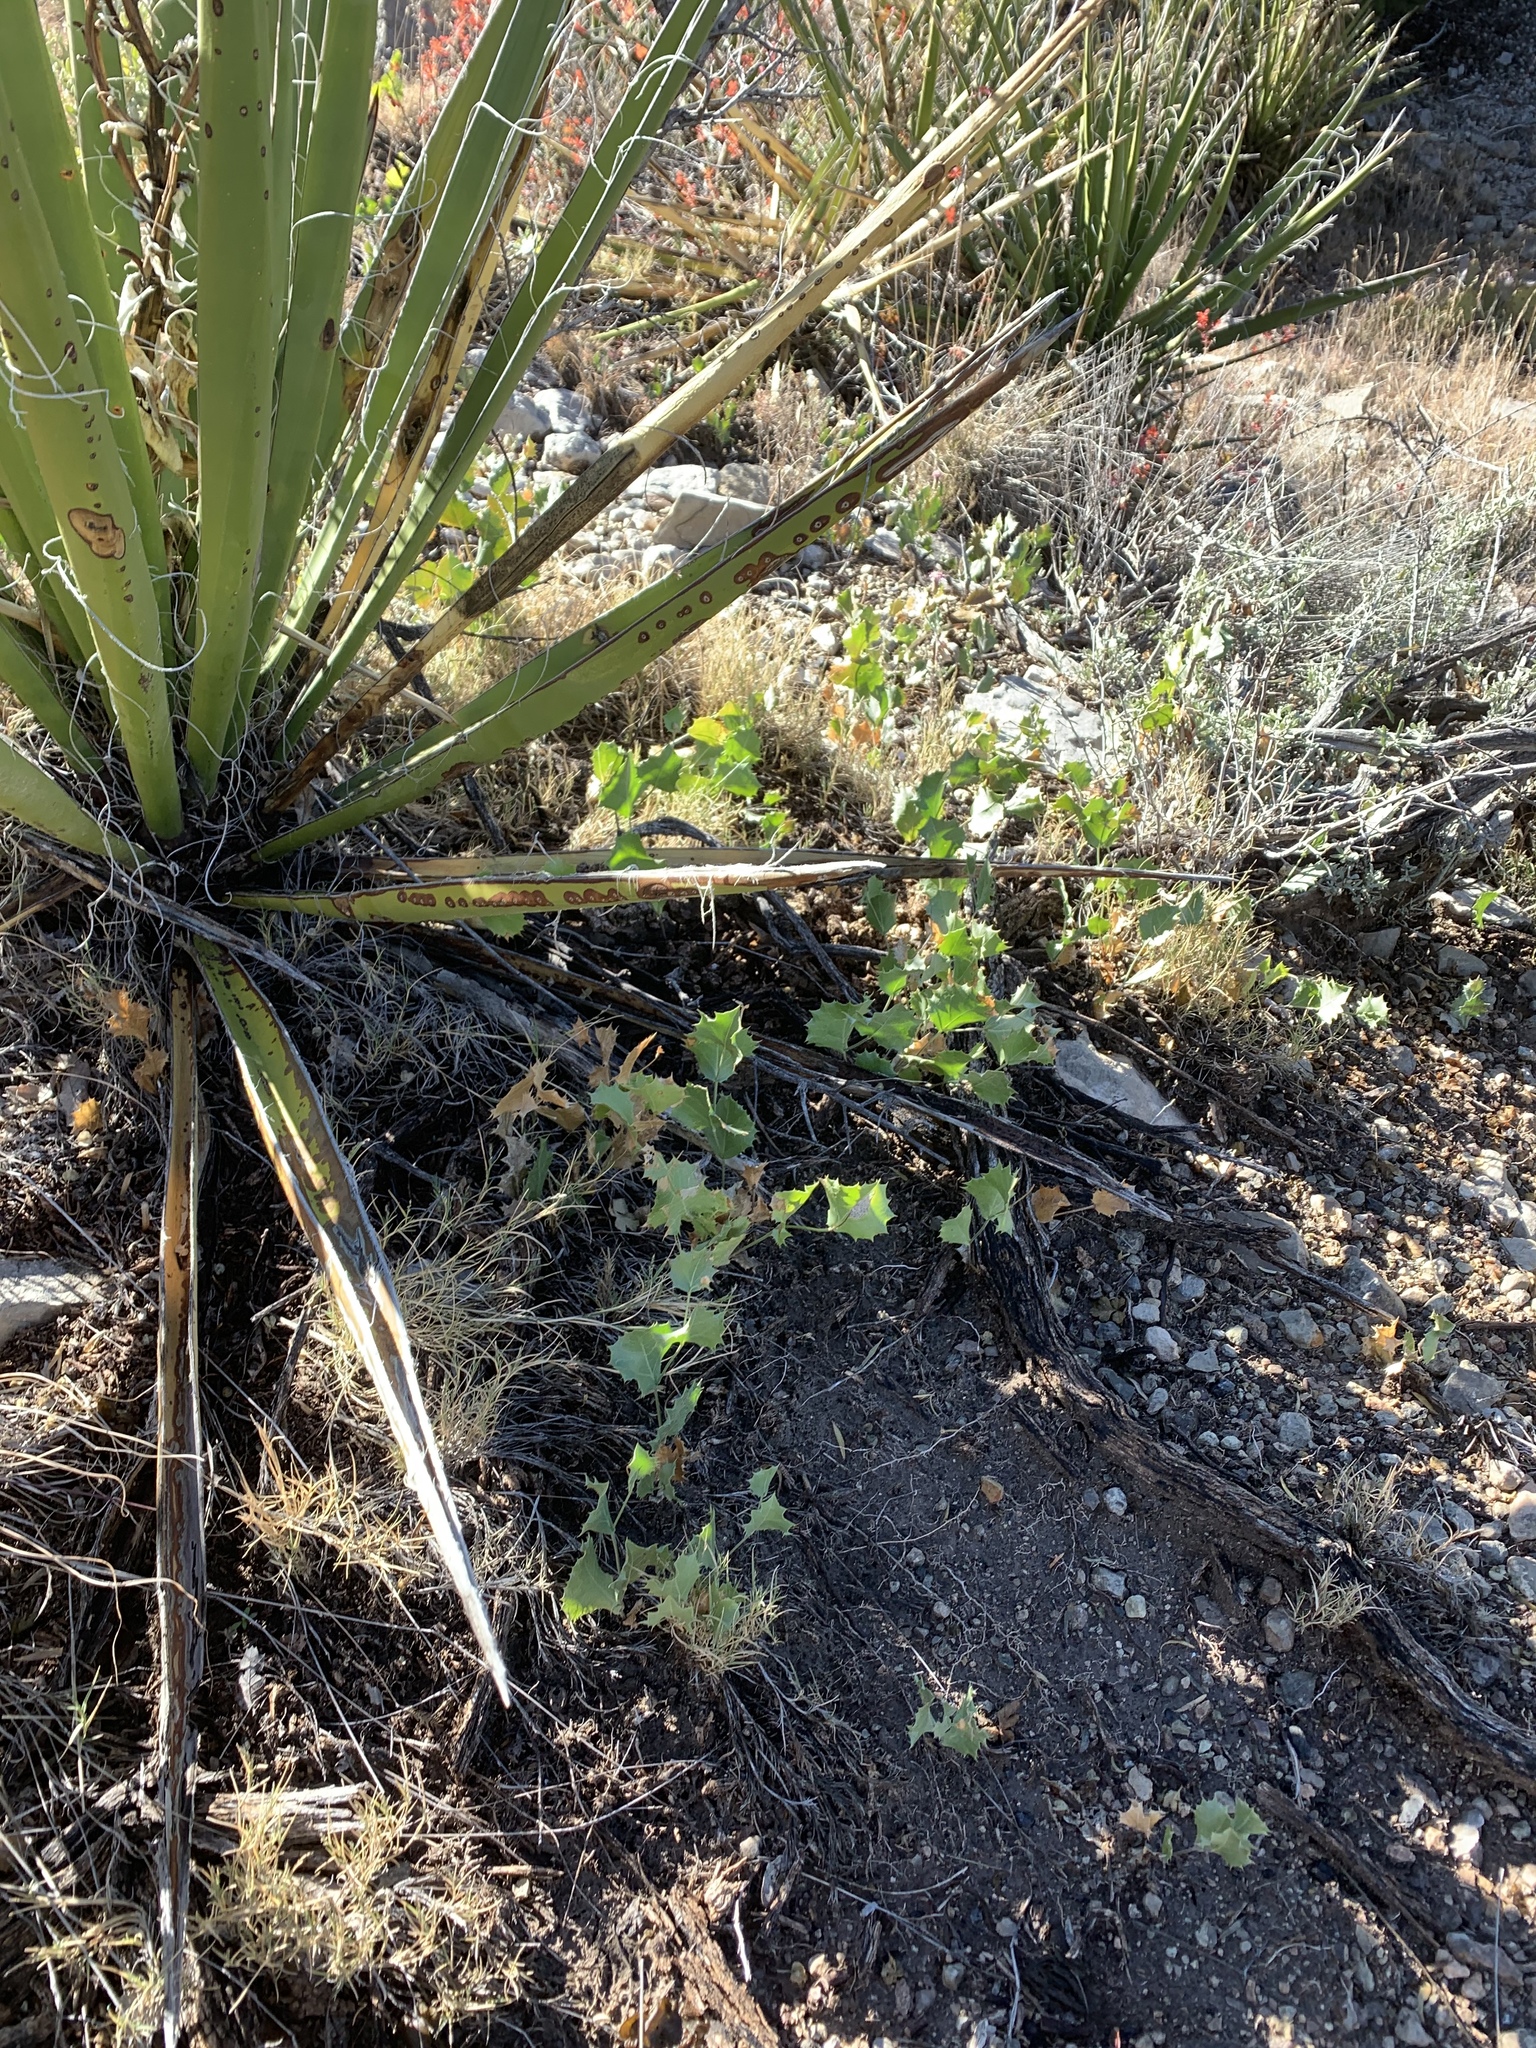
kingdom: Plantae
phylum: Tracheophyta
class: Magnoliopsida
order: Asterales
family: Asteraceae
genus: Acourtia
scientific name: Acourtia nana
